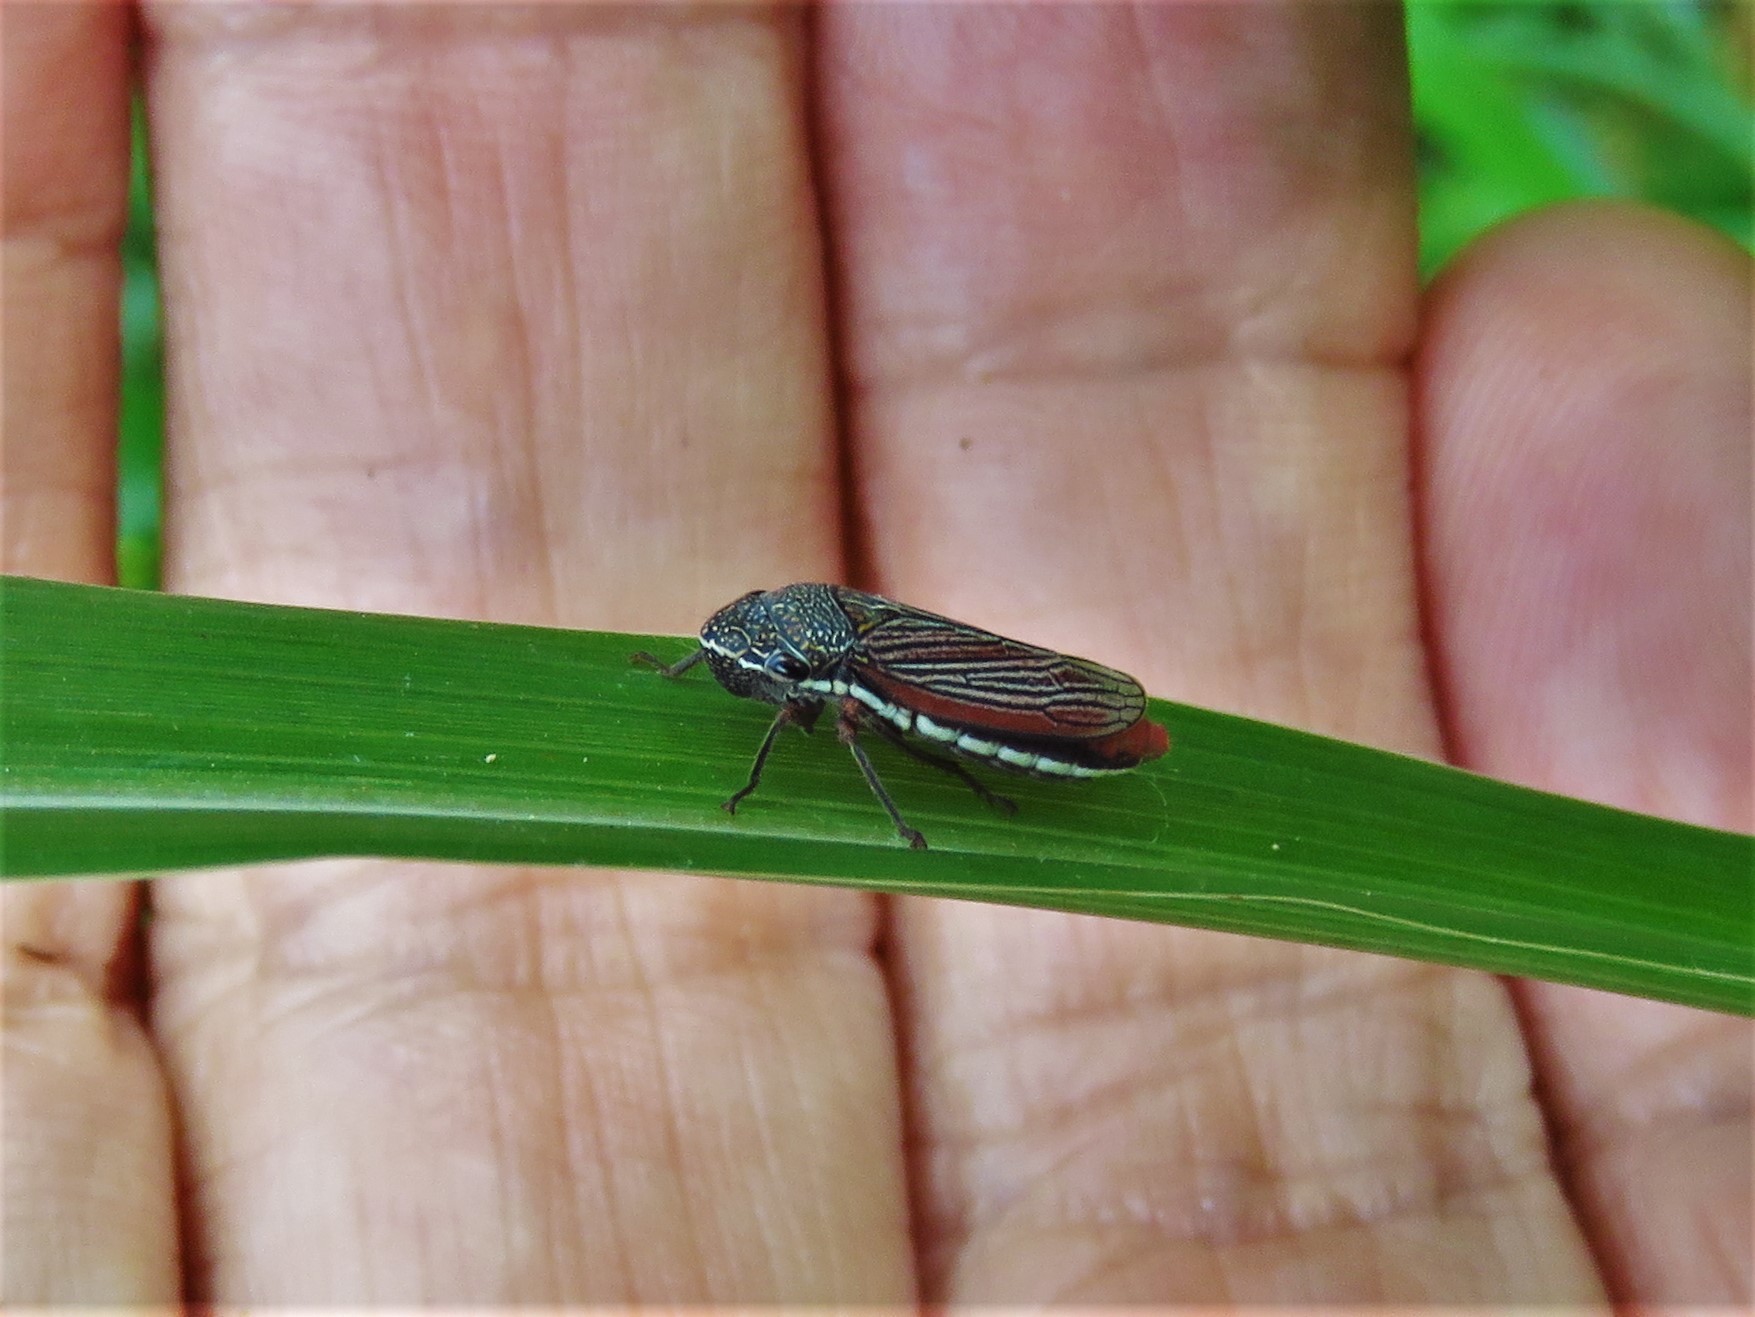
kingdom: Animalia
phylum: Arthropoda
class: Insecta
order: Hemiptera
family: Cicadellidae
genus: Cuerna
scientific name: Cuerna costalis
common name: Lateral-lined sharpshooter
